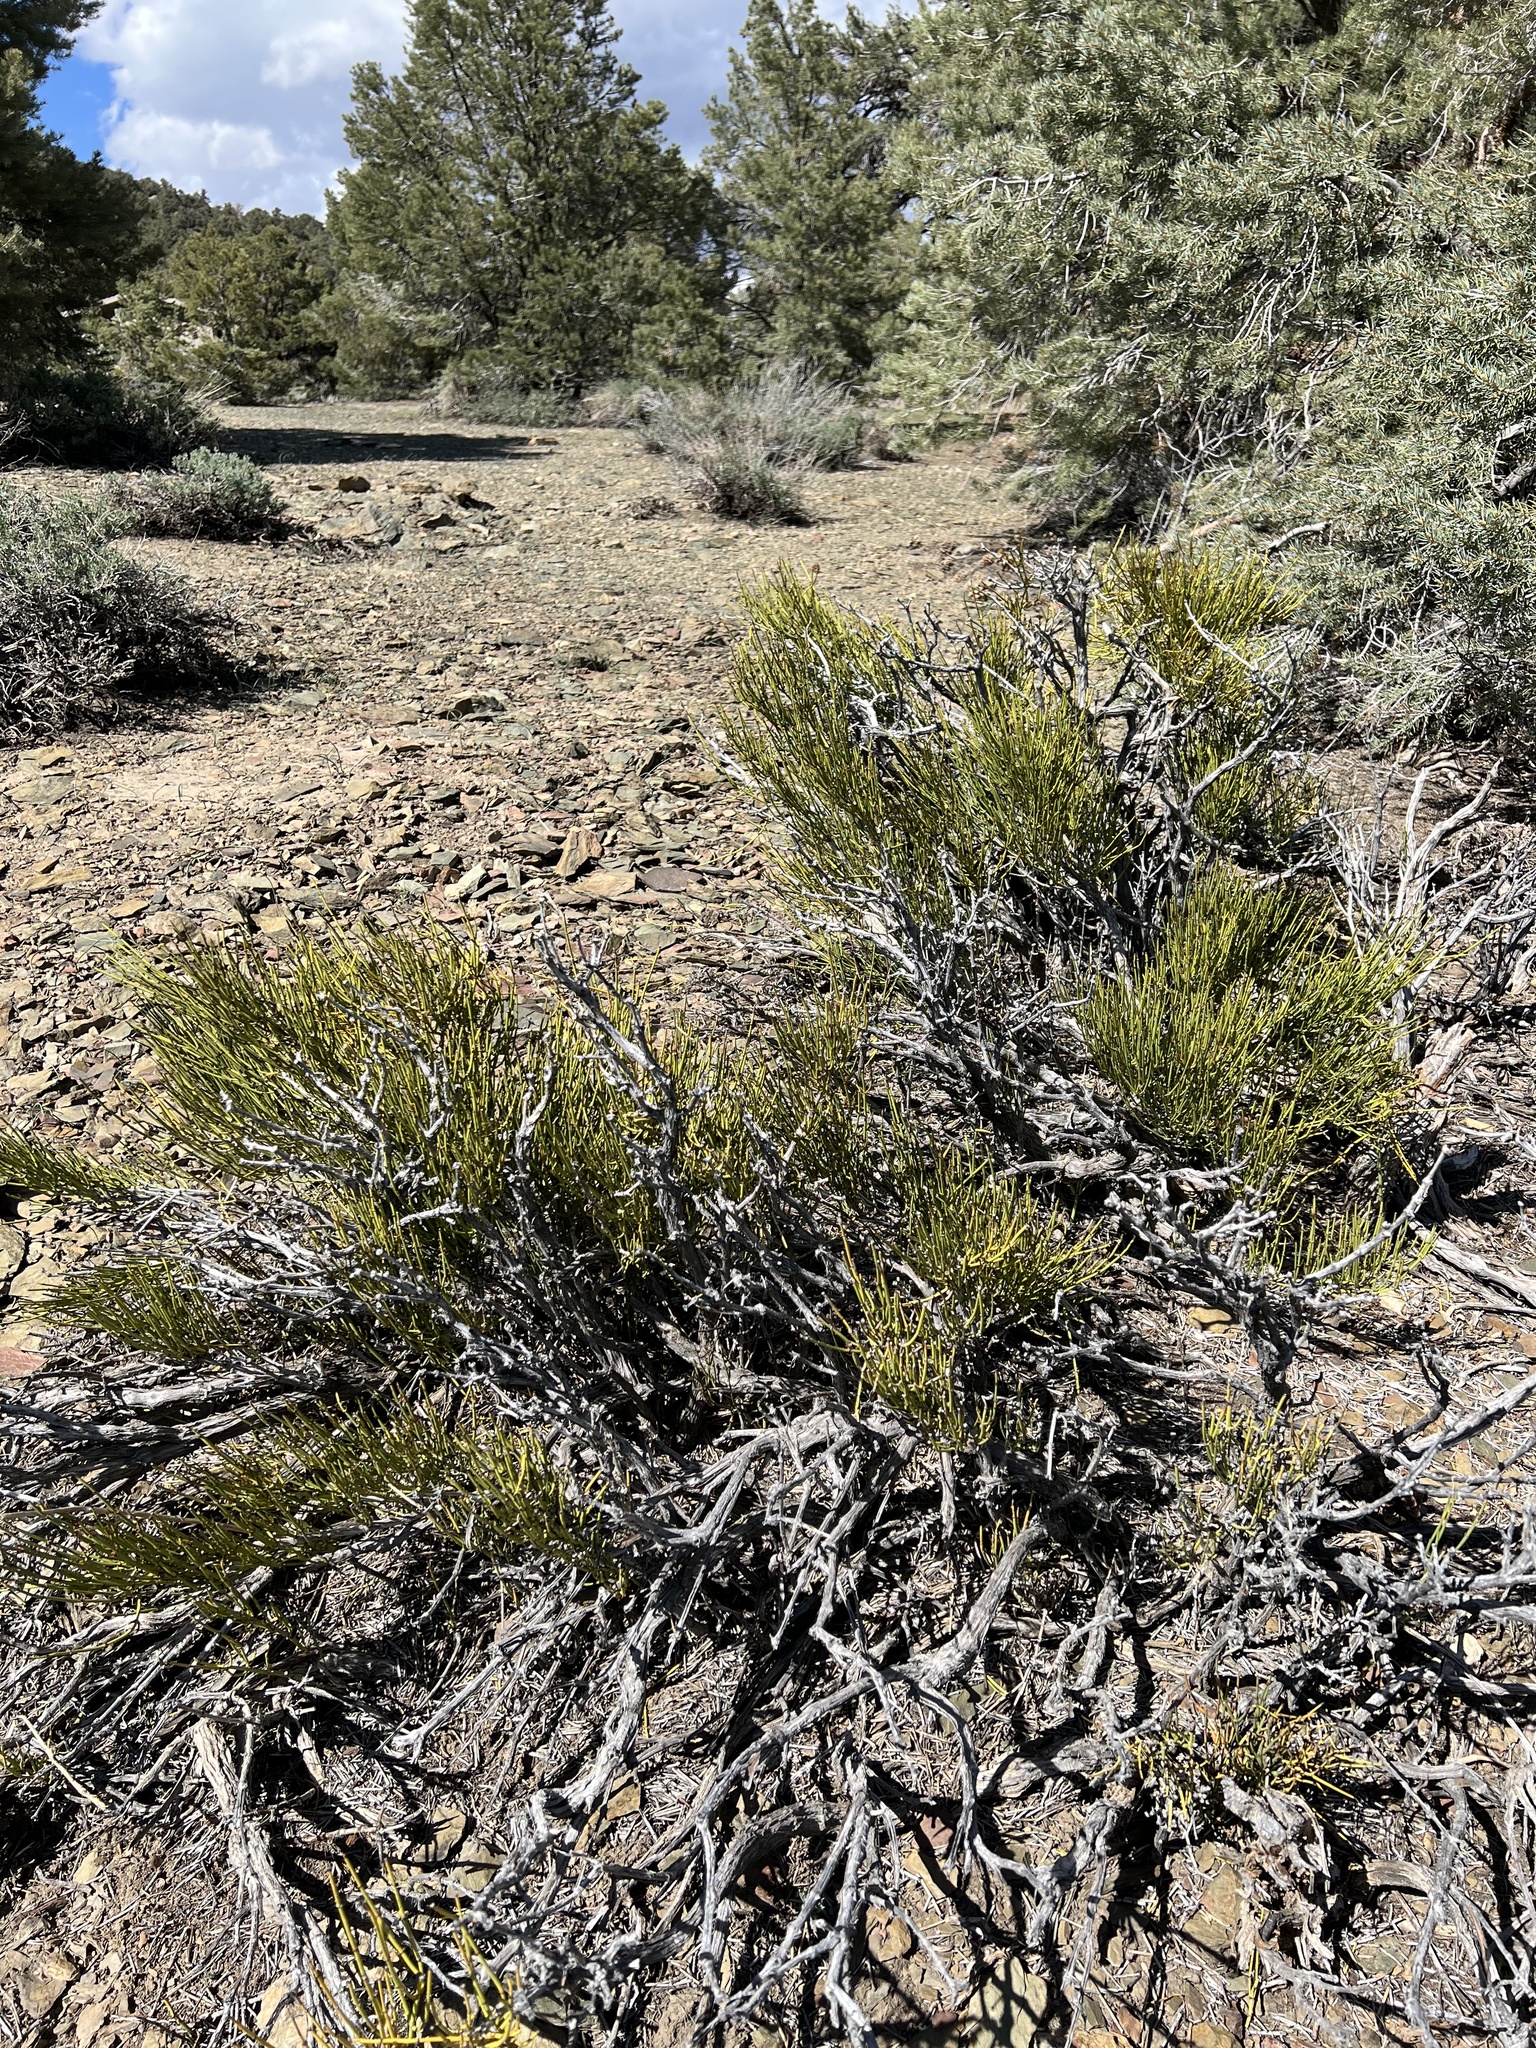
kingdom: Plantae
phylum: Tracheophyta
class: Gnetopsida
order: Ephedrales
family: Ephedraceae
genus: Ephedra
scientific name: Ephedra viridis
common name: Green ephedra
